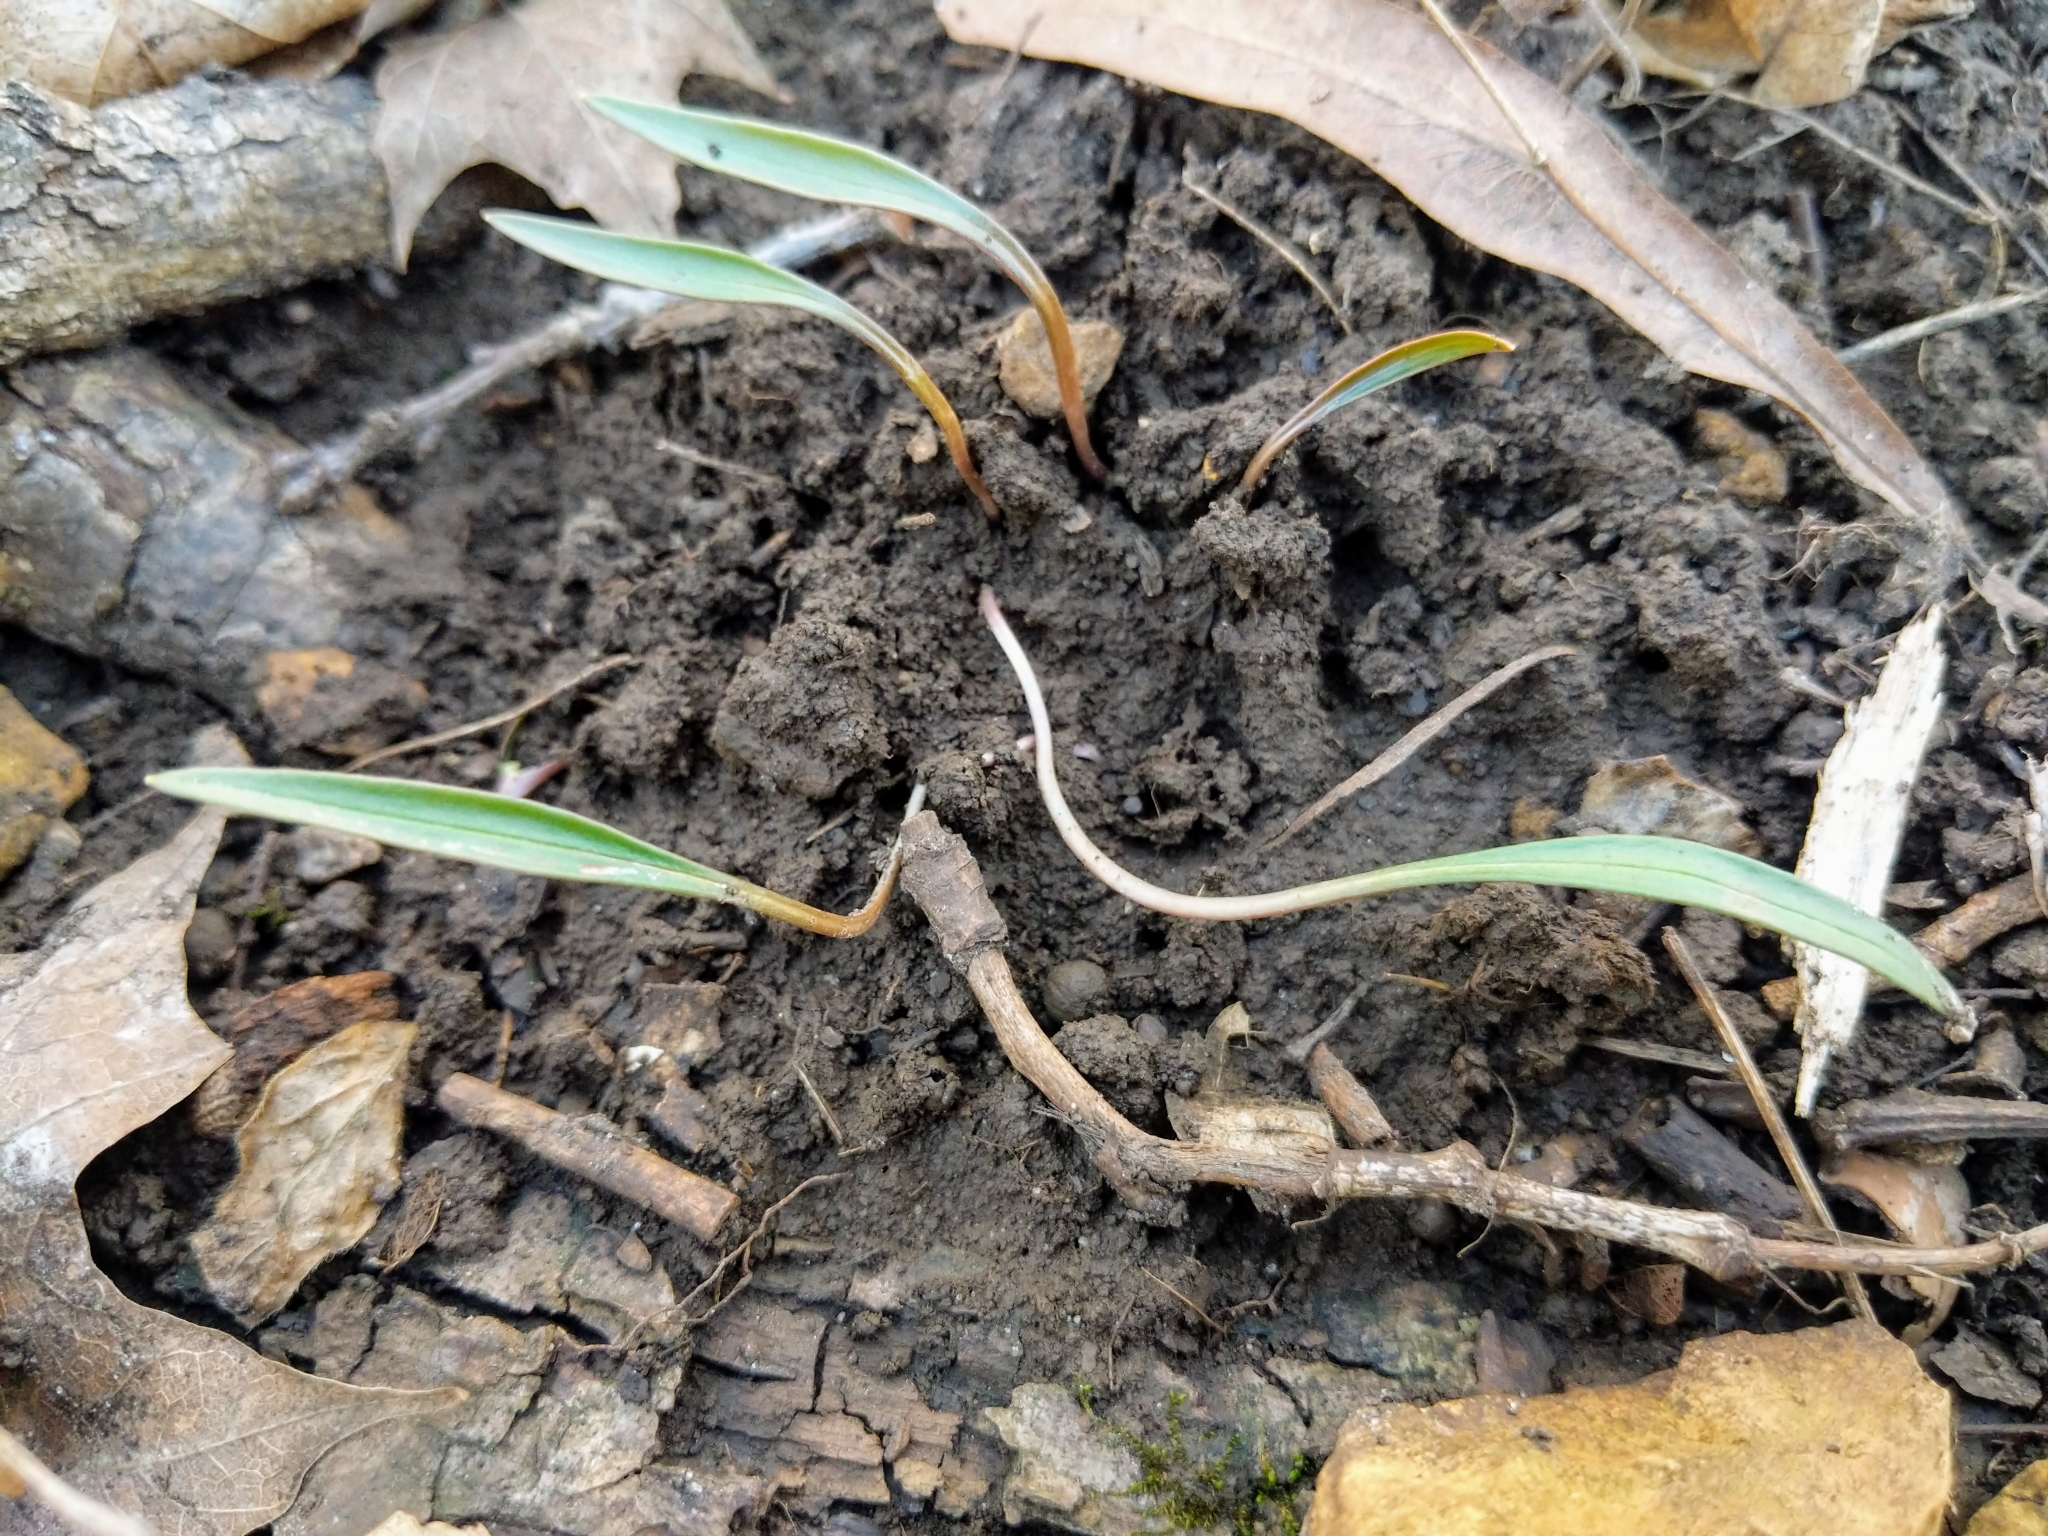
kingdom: Plantae
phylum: Tracheophyta
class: Magnoliopsida
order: Caryophyllales
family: Montiaceae
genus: Claytonia
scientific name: Claytonia virginica
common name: Virginia springbeauty
